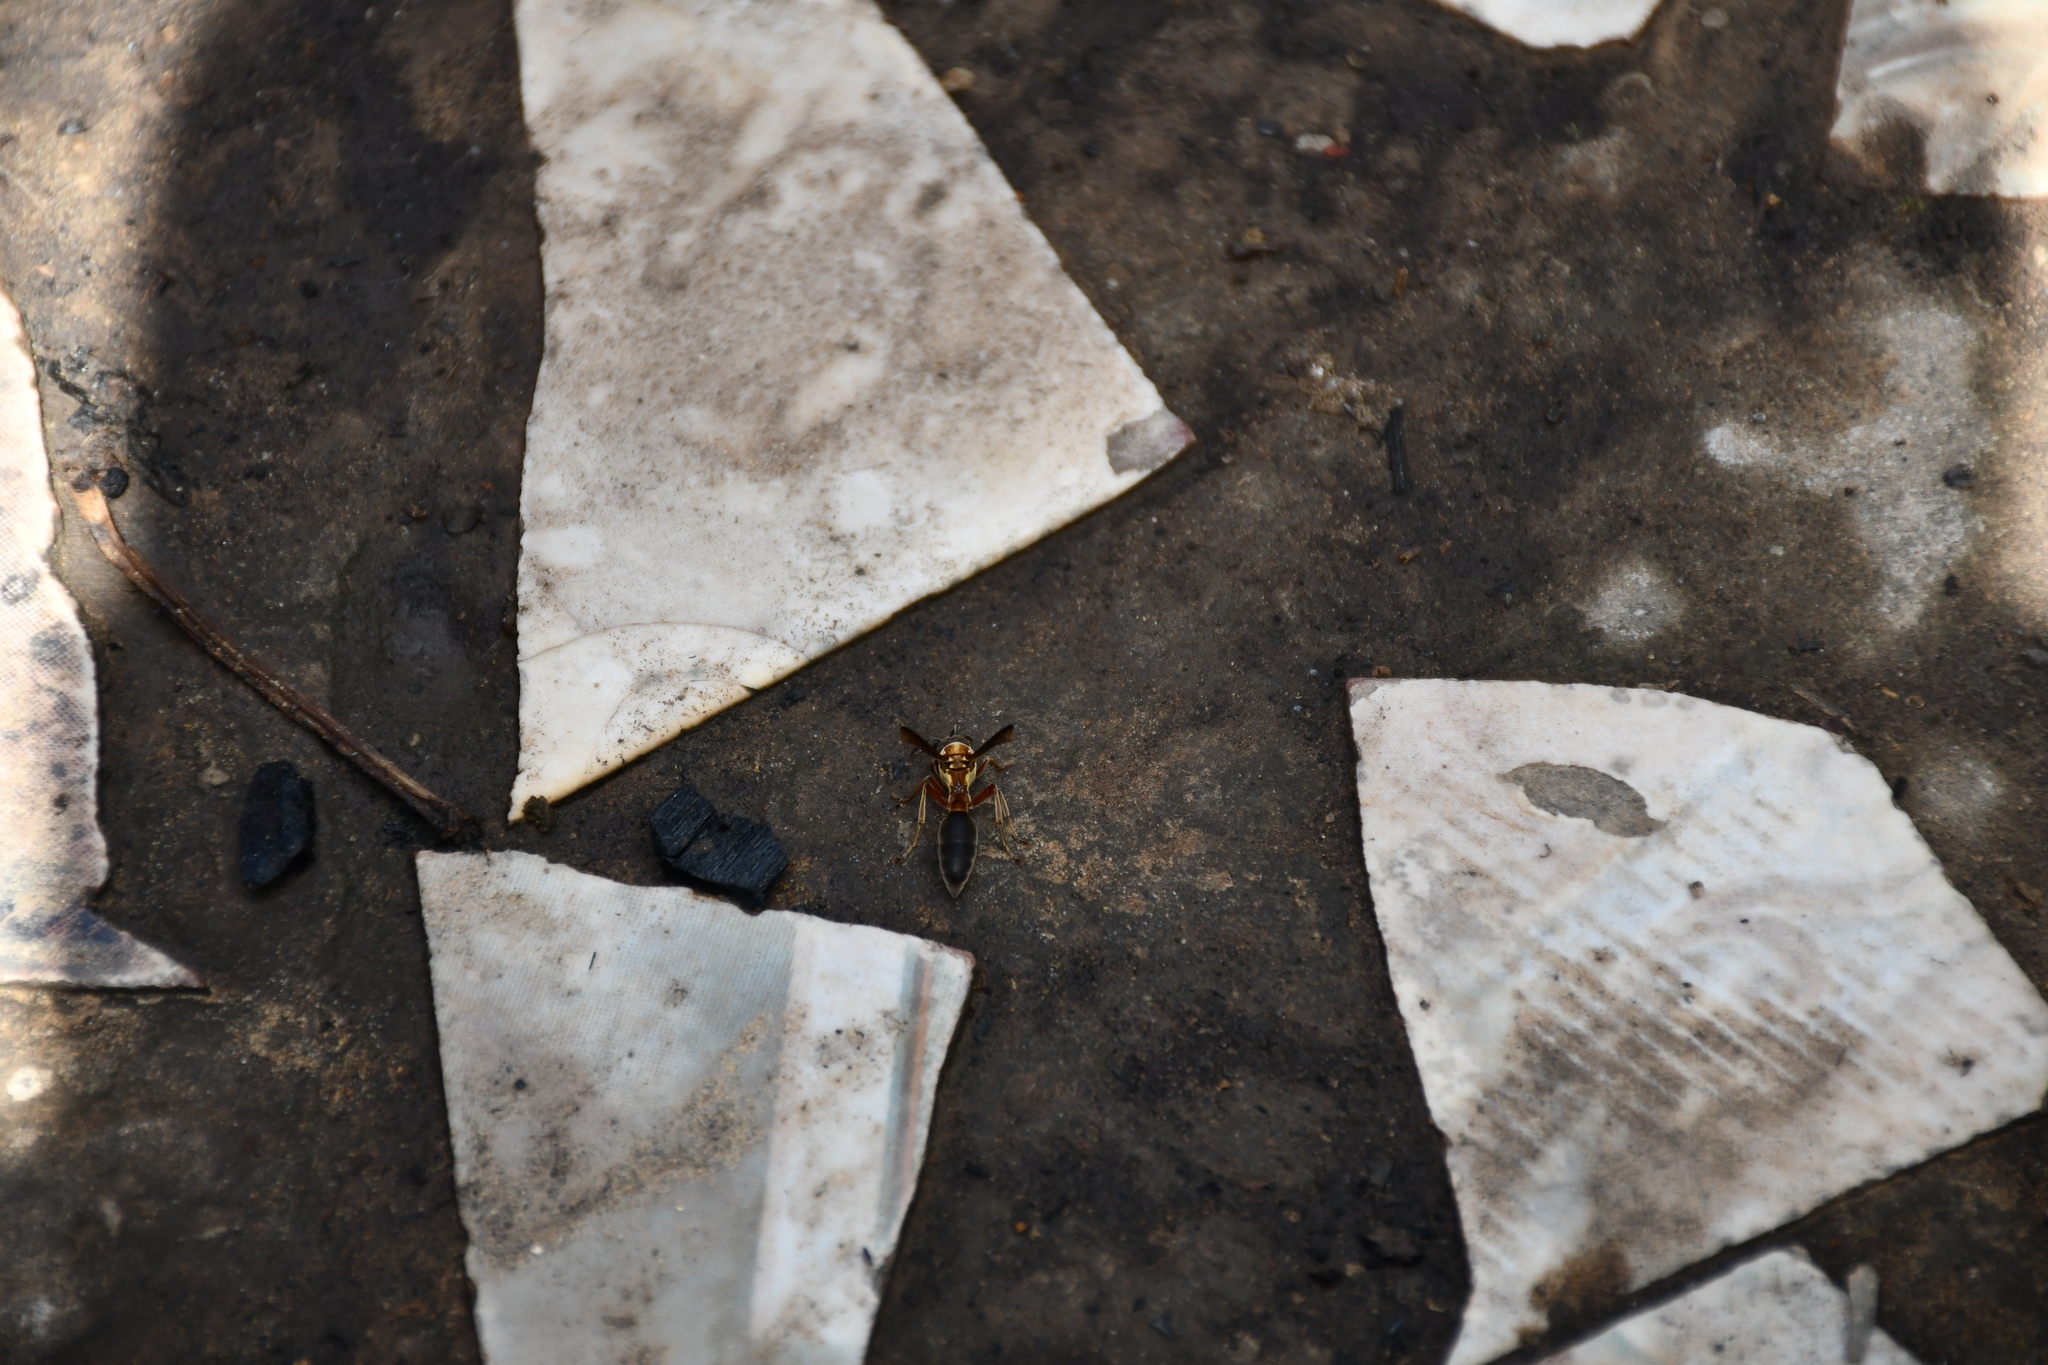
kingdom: Animalia
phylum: Arthropoda
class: Insecta
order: Hymenoptera
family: Eumenidae
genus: Polybia
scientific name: Polybia sericea
